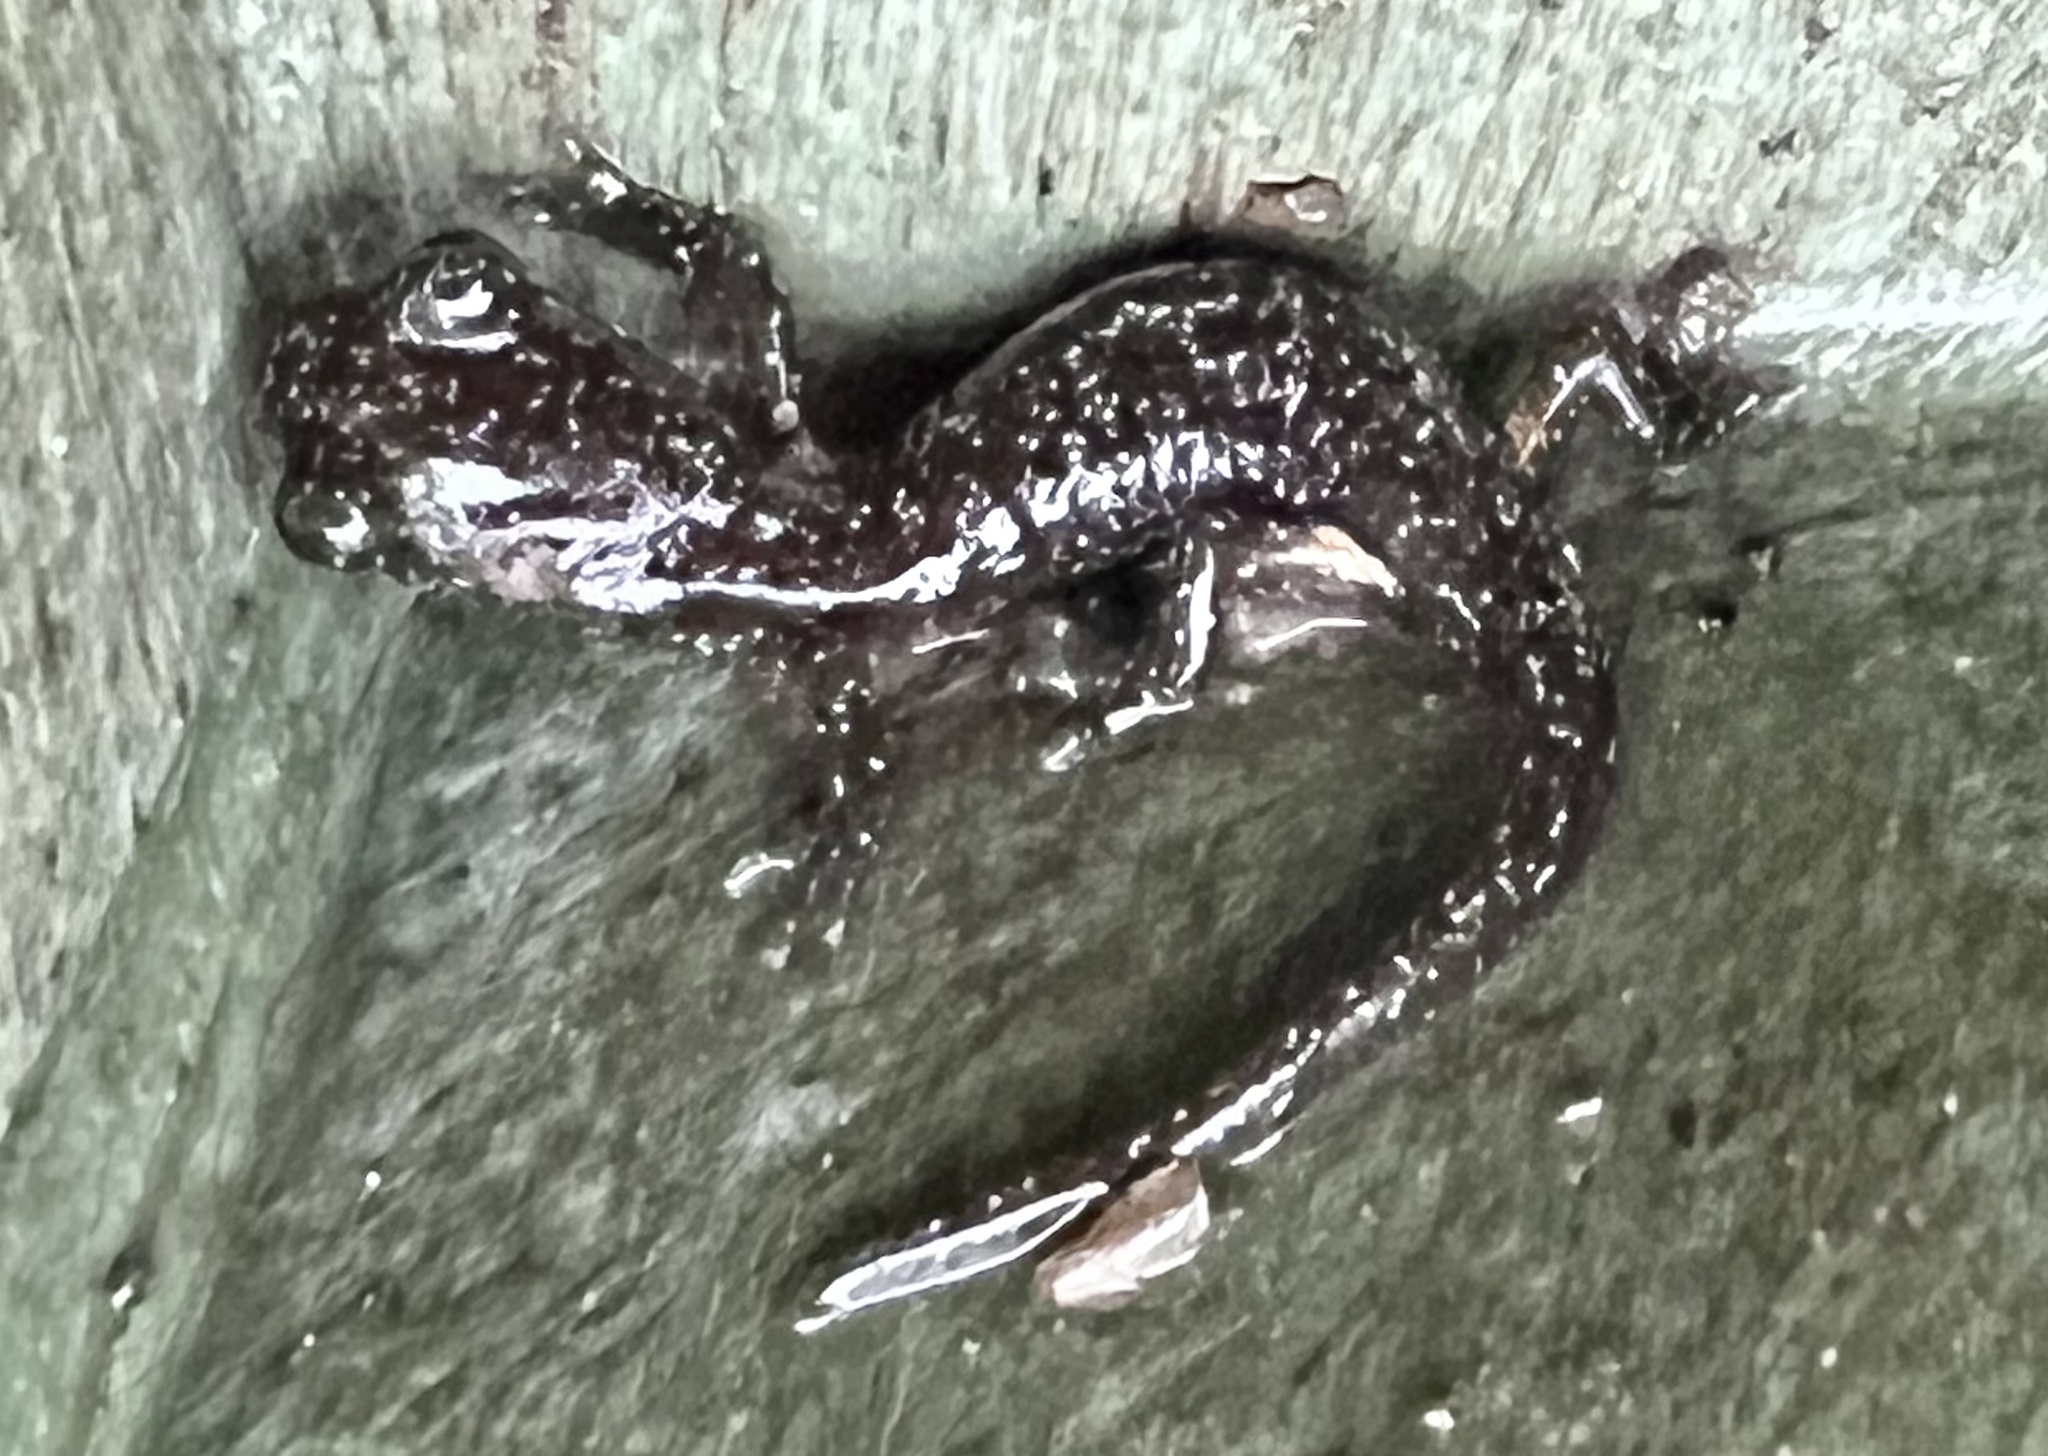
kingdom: Animalia
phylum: Chordata
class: Amphibia
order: Caudata
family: Plethodontidae
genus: Aneides
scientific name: Aneides lugubris
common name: Arboreal salamander
